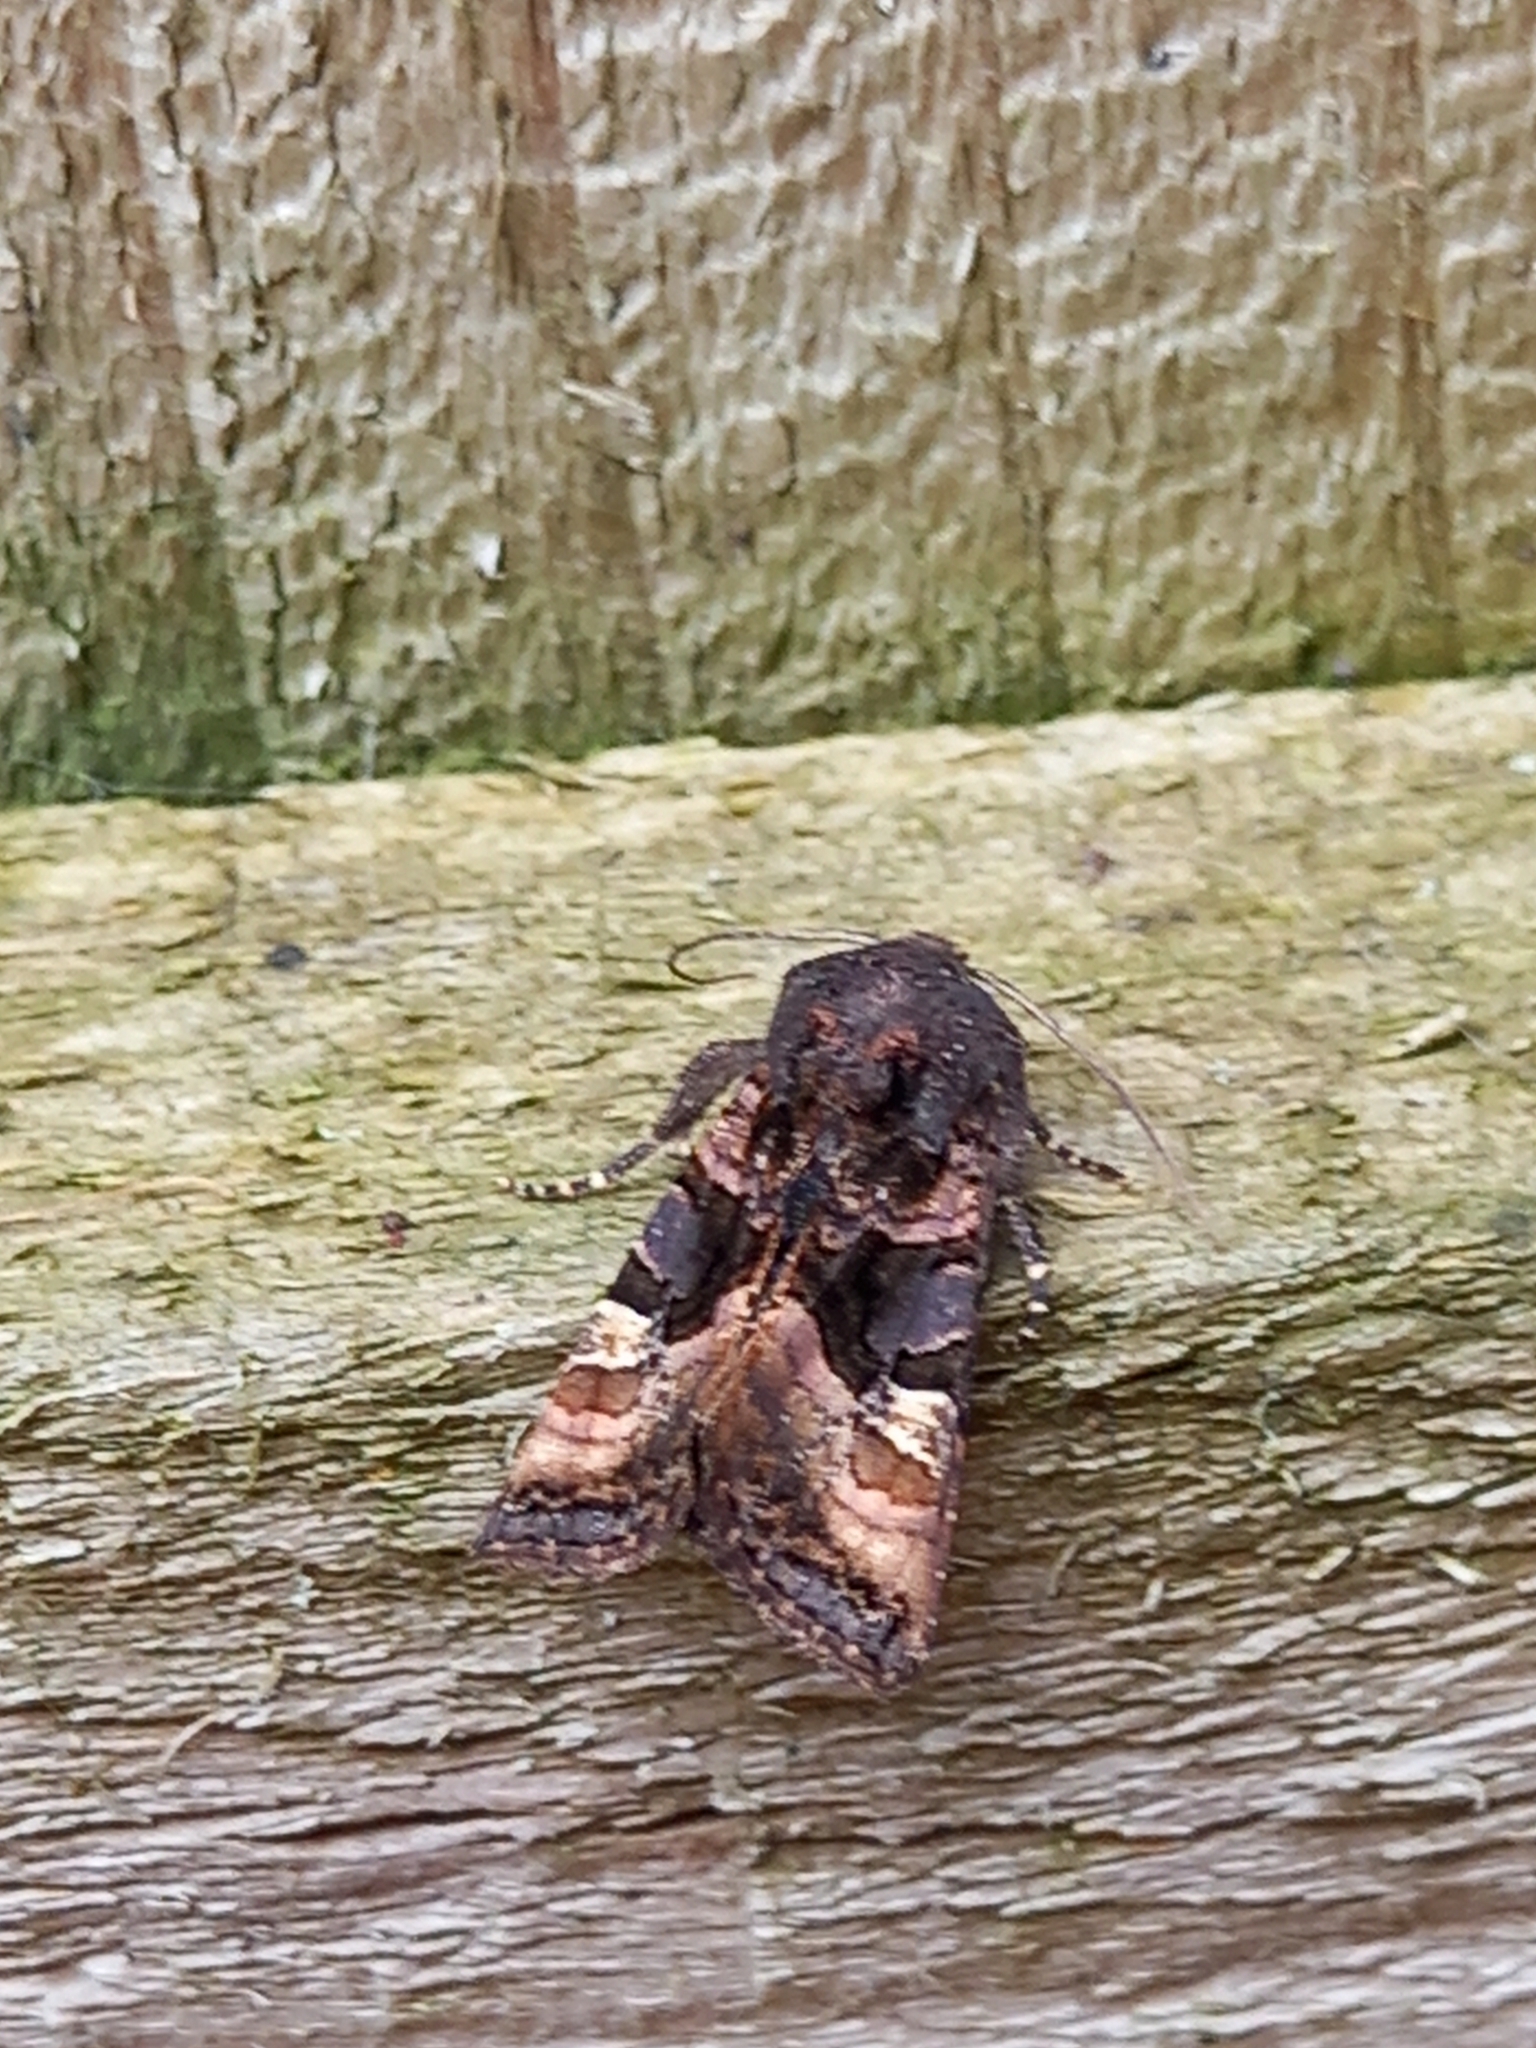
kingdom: Animalia
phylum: Arthropoda
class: Insecta
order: Lepidoptera
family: Noctuidae
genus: Euplexia
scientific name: Euplexia lucipara
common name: Small angle shades
